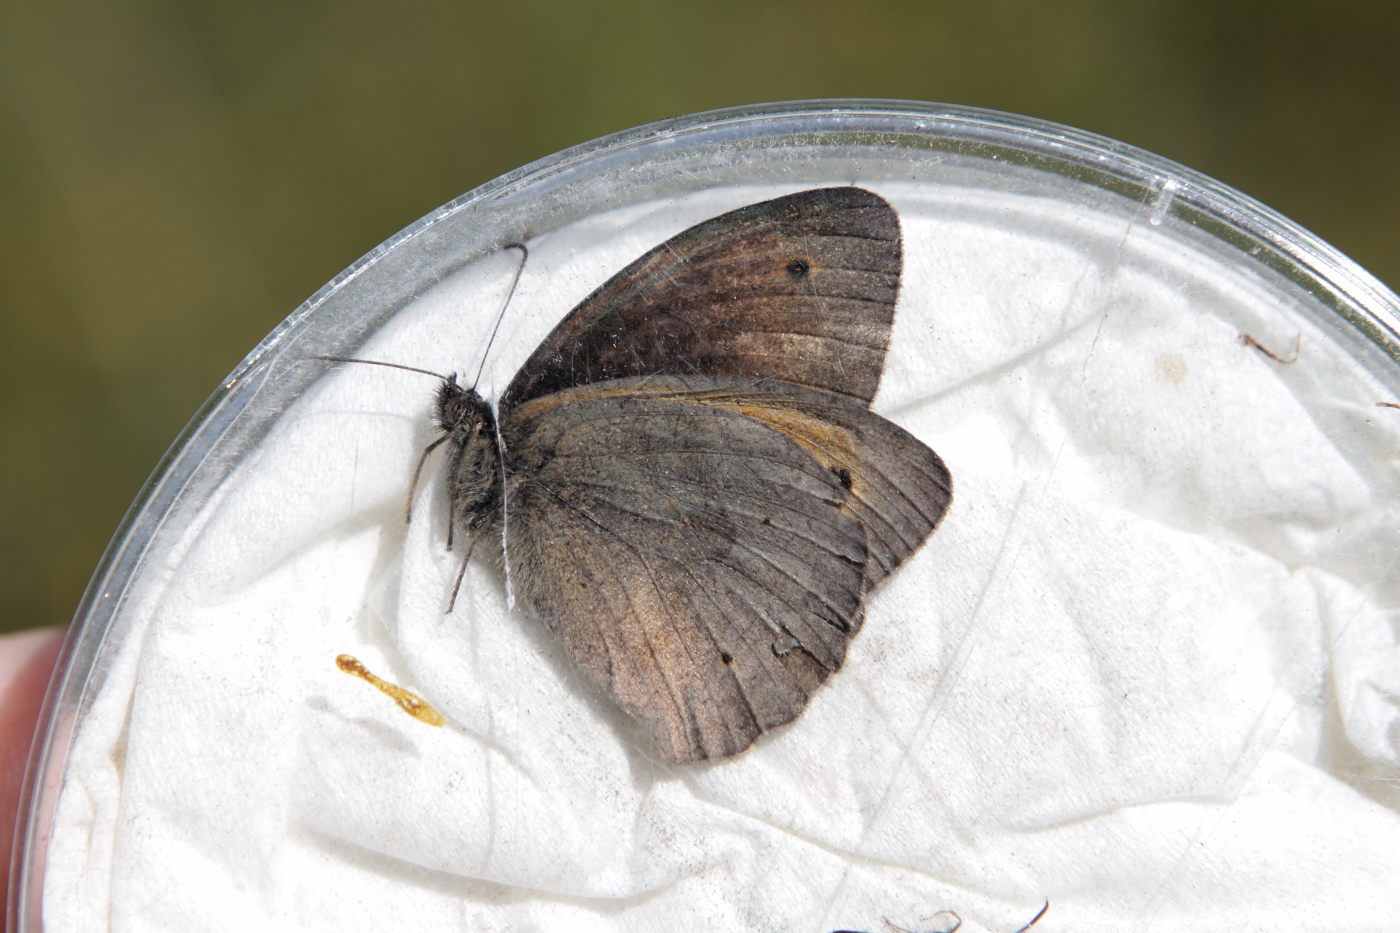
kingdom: Animalia
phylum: Arthropoda
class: Insecta
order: Lepidoptera
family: Nymphalidae
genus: Maniola
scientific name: Maniola jurtina
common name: Meadow brown
